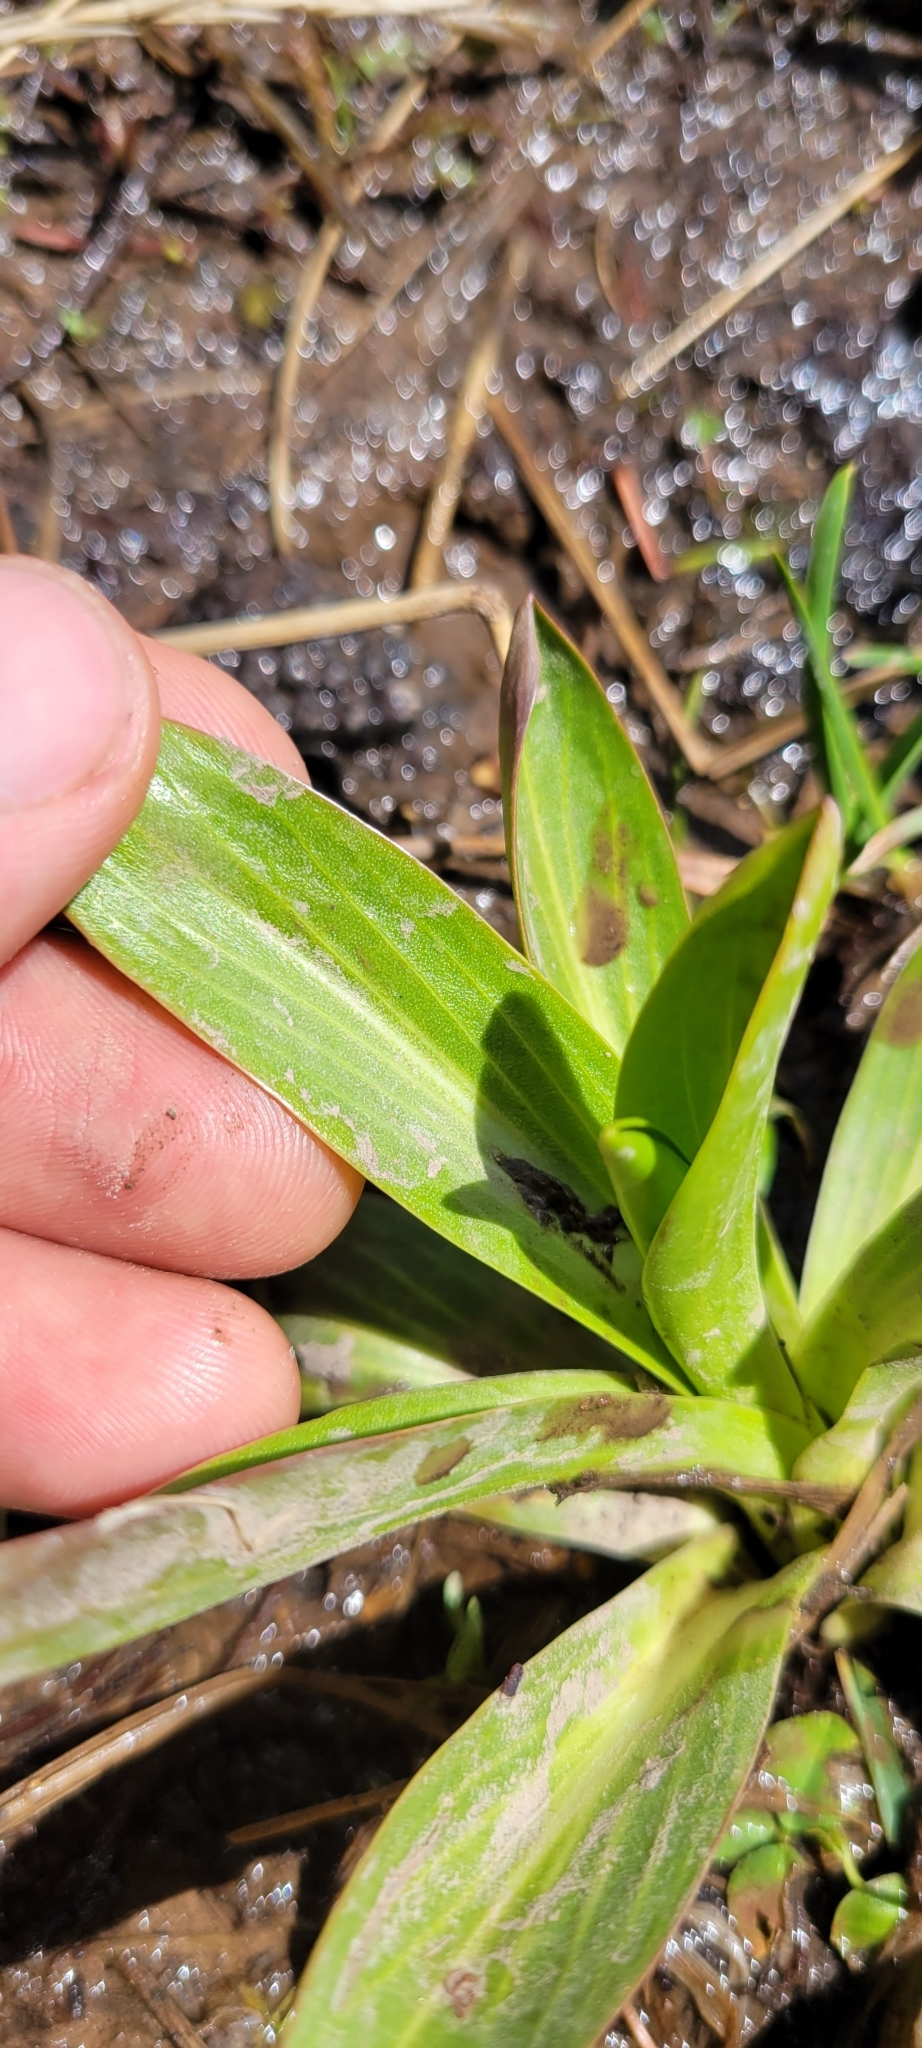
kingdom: Plantae
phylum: Tracheophyta
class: Magnoliopsida
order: Gentianales
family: Gentianaceae
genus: Frasera
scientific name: Frasera speciosa
